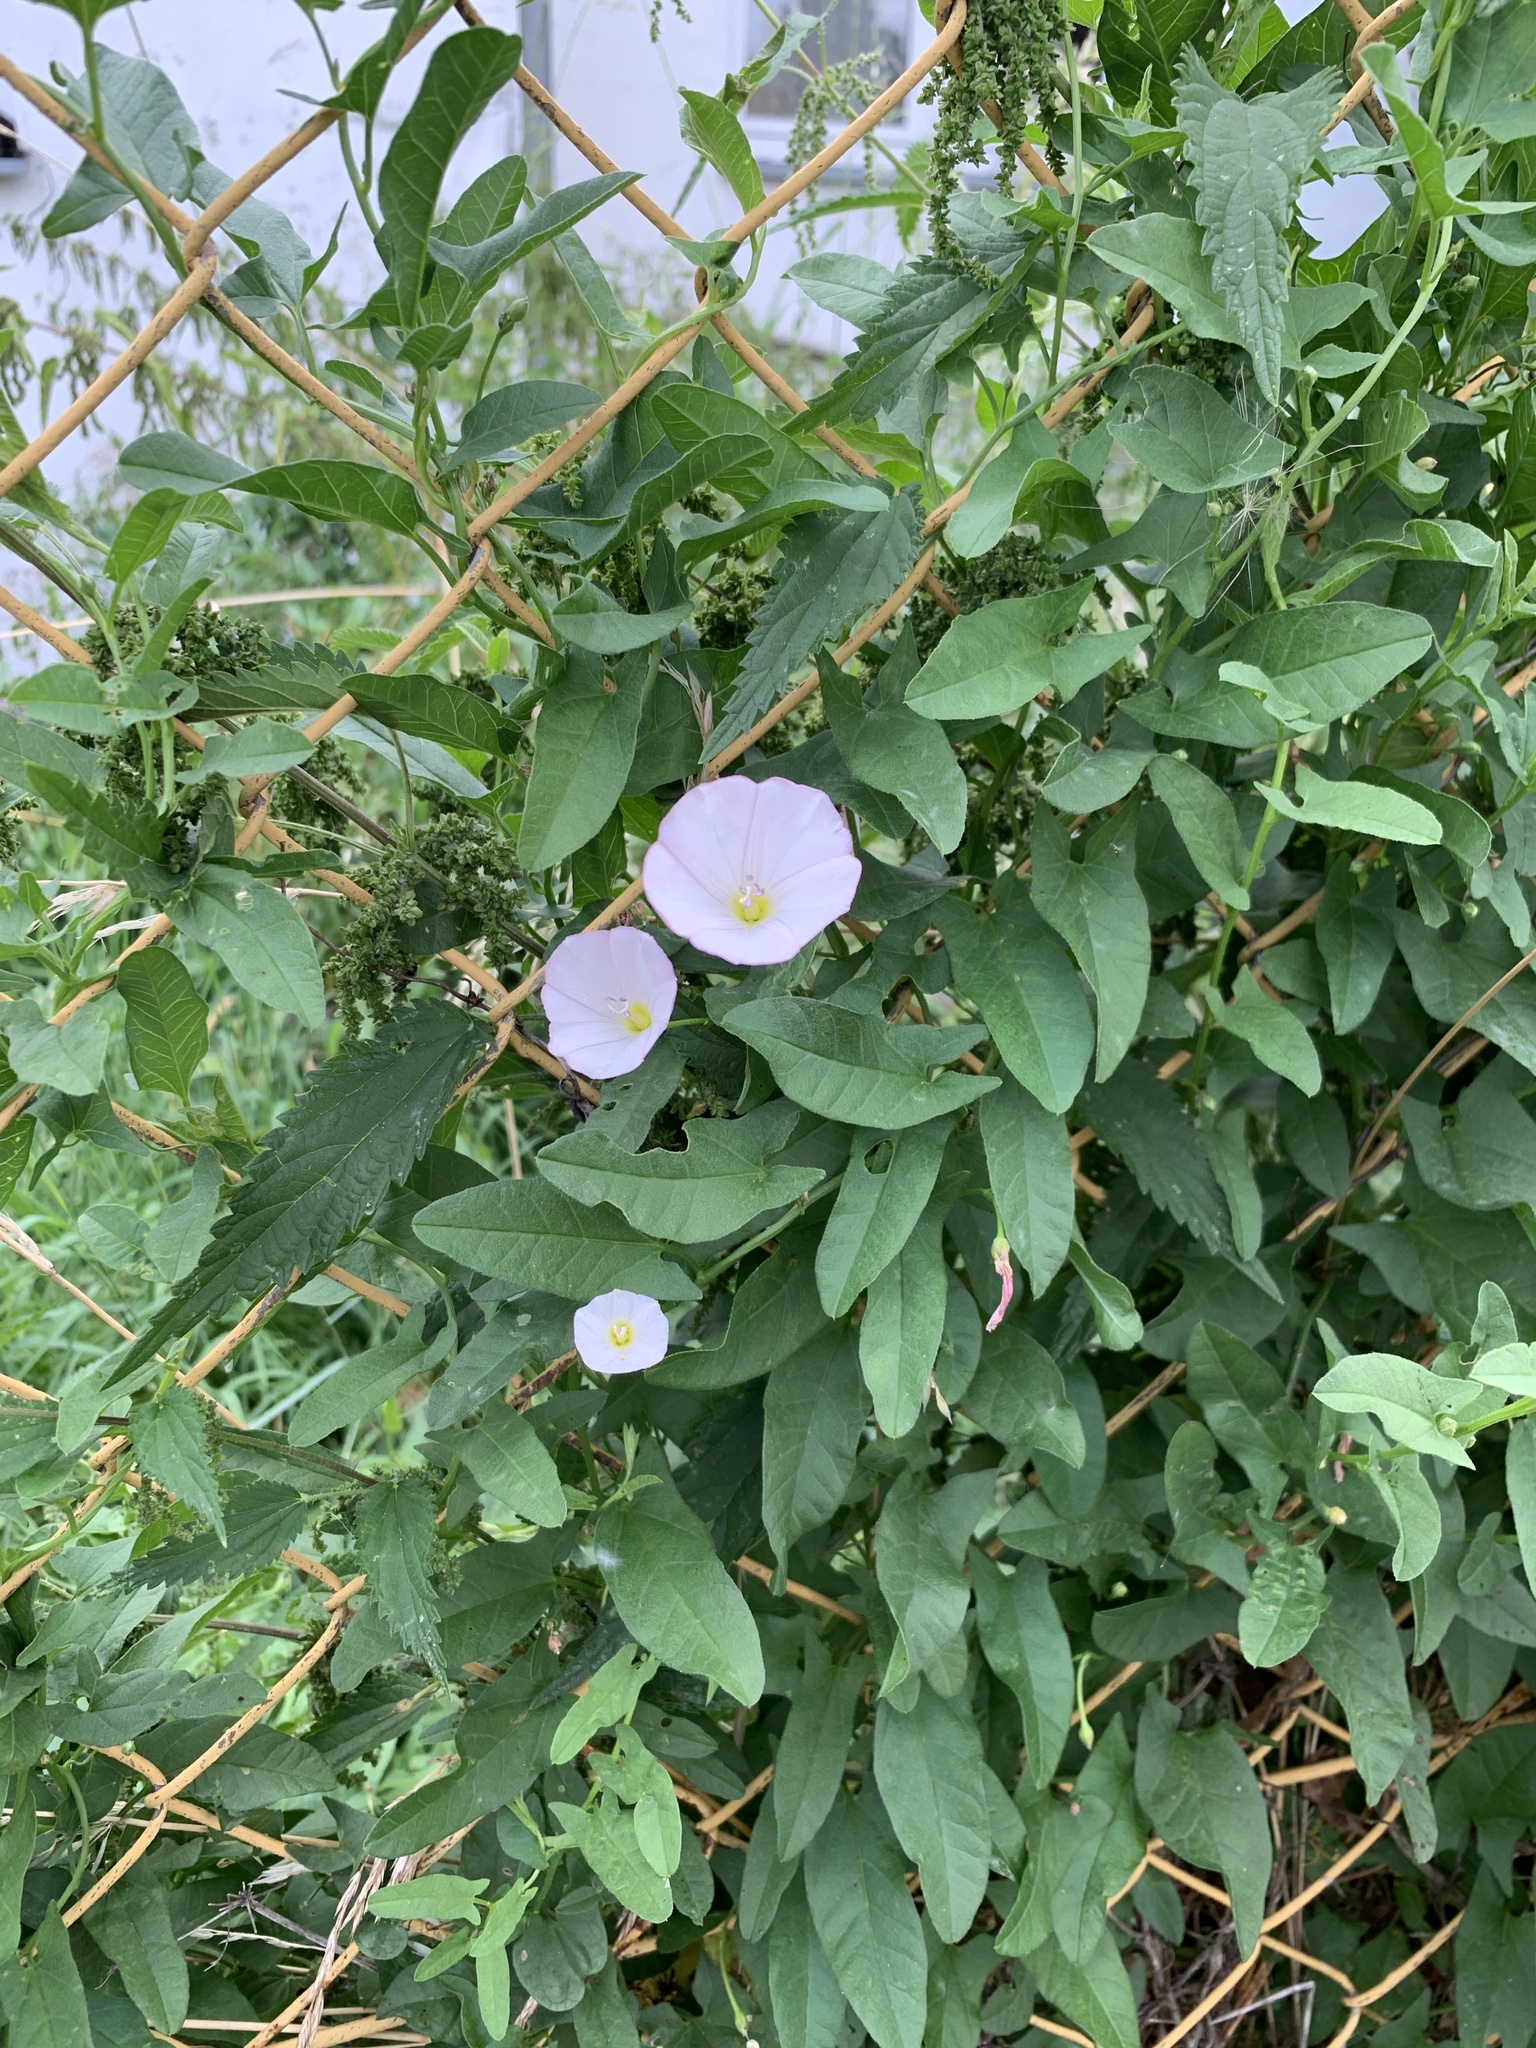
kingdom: Plantae
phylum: Tracheophyta
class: Magnoliopsida
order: Solanales
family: Convolvulaceae
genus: Convolvulus
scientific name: Convolvulus arvensis
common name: Field bindweed
